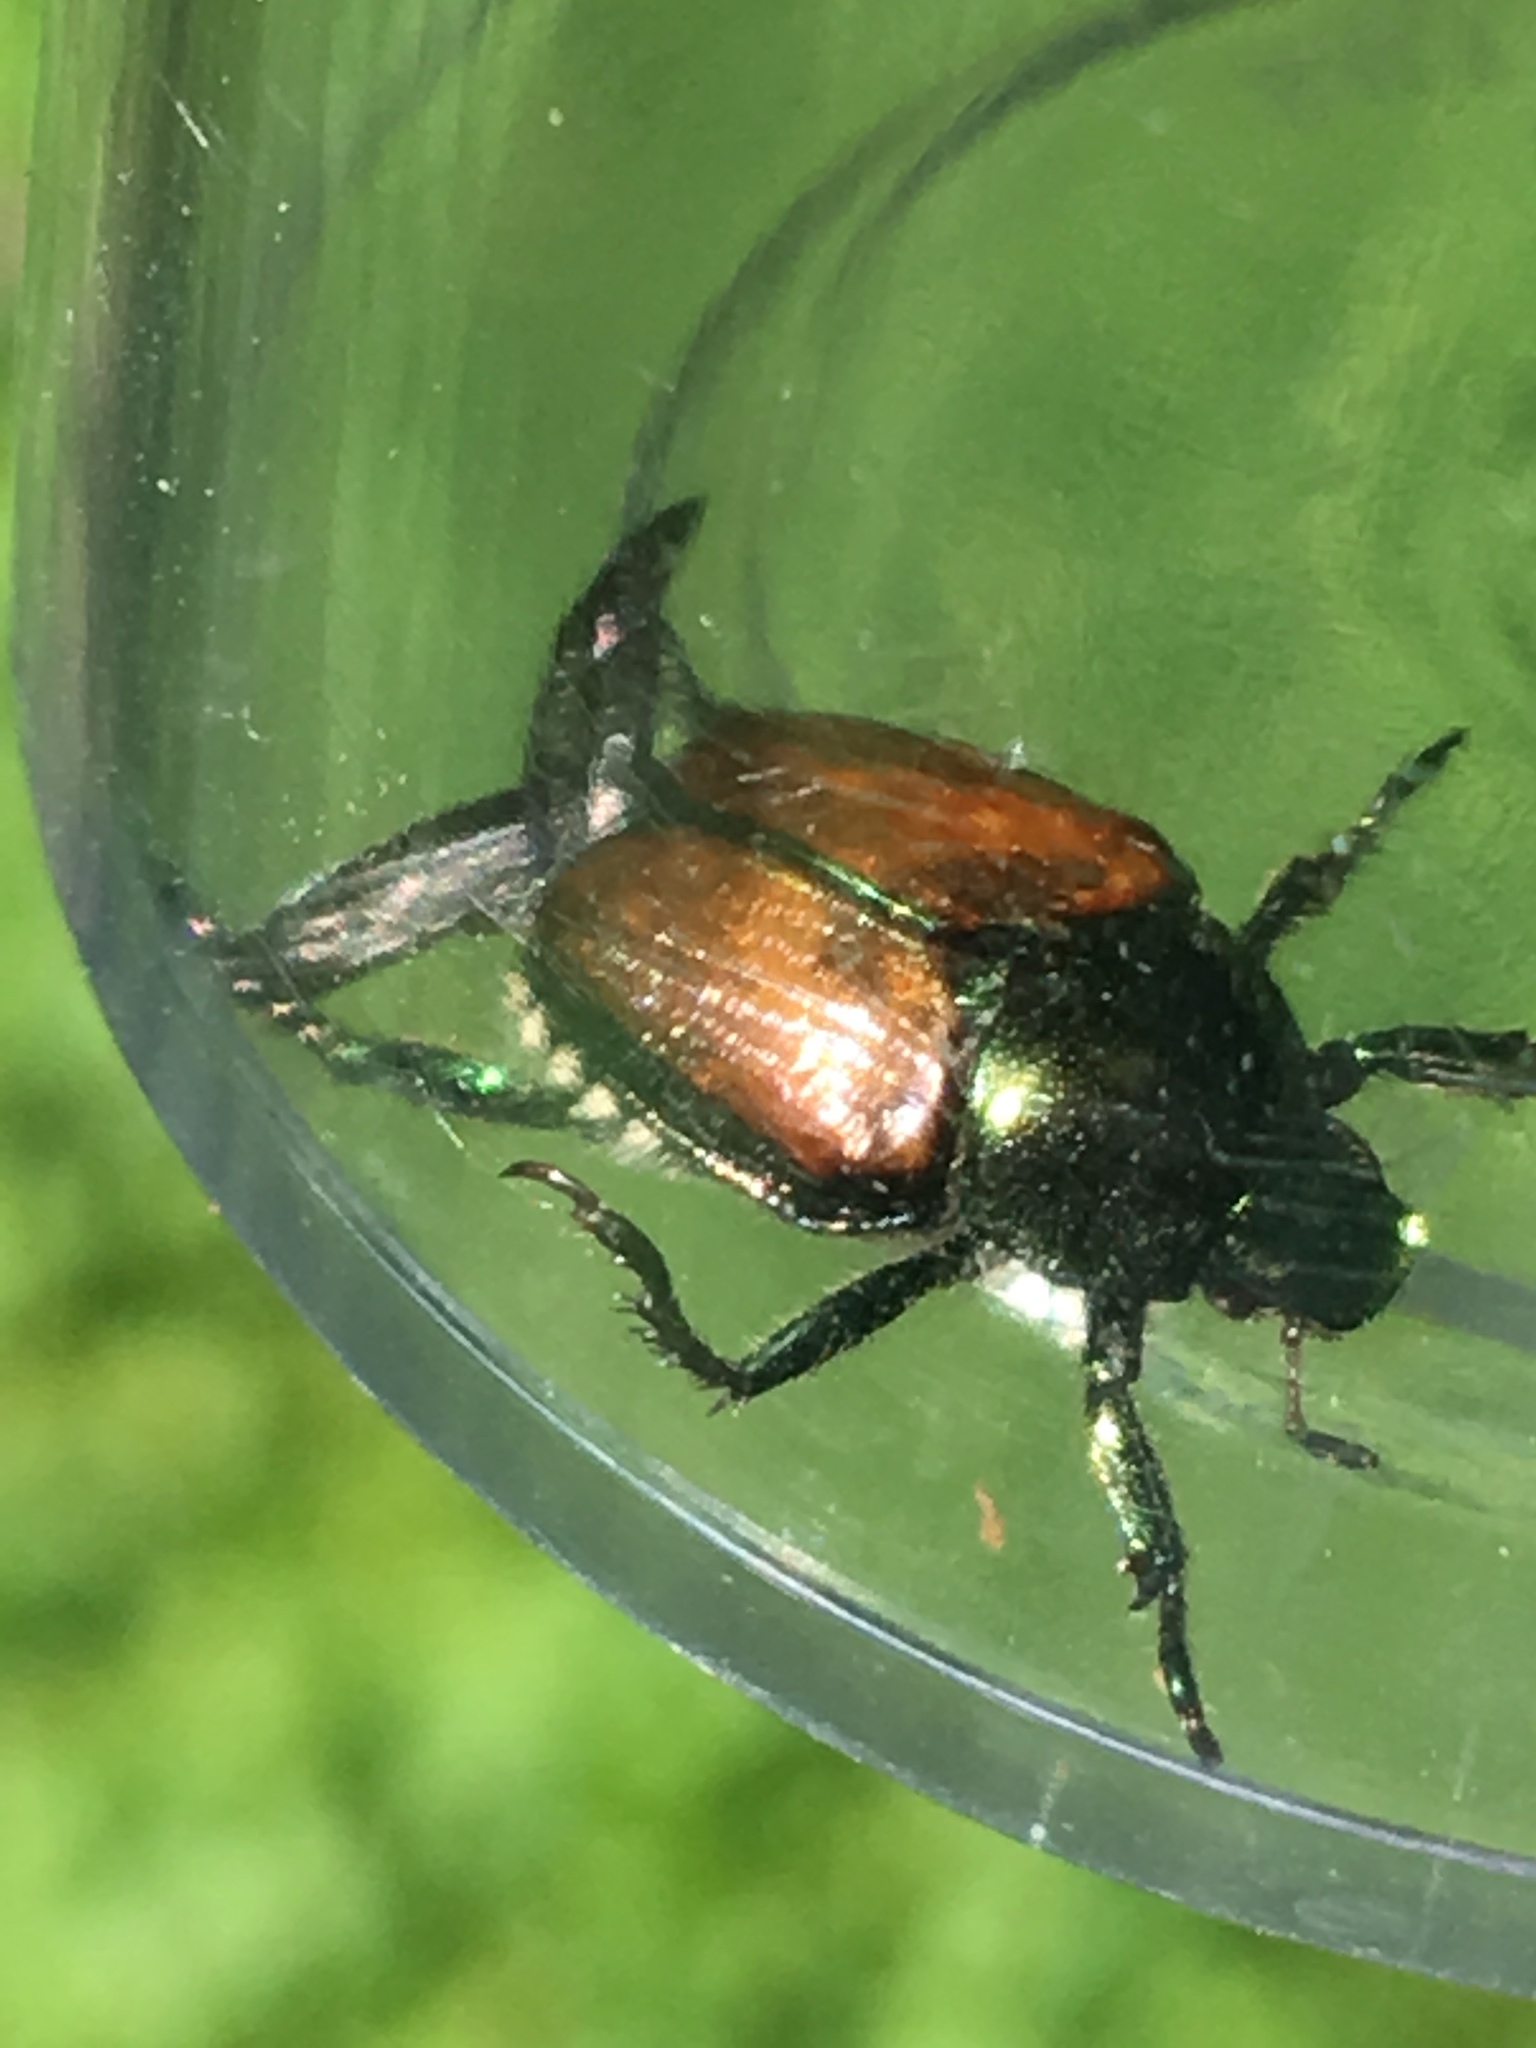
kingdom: Animalia
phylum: Arthropoda
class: Insecta
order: Coleoptera
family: Scarabaeidae
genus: Popillia
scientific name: Popillia japonica
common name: Japanese beetle
